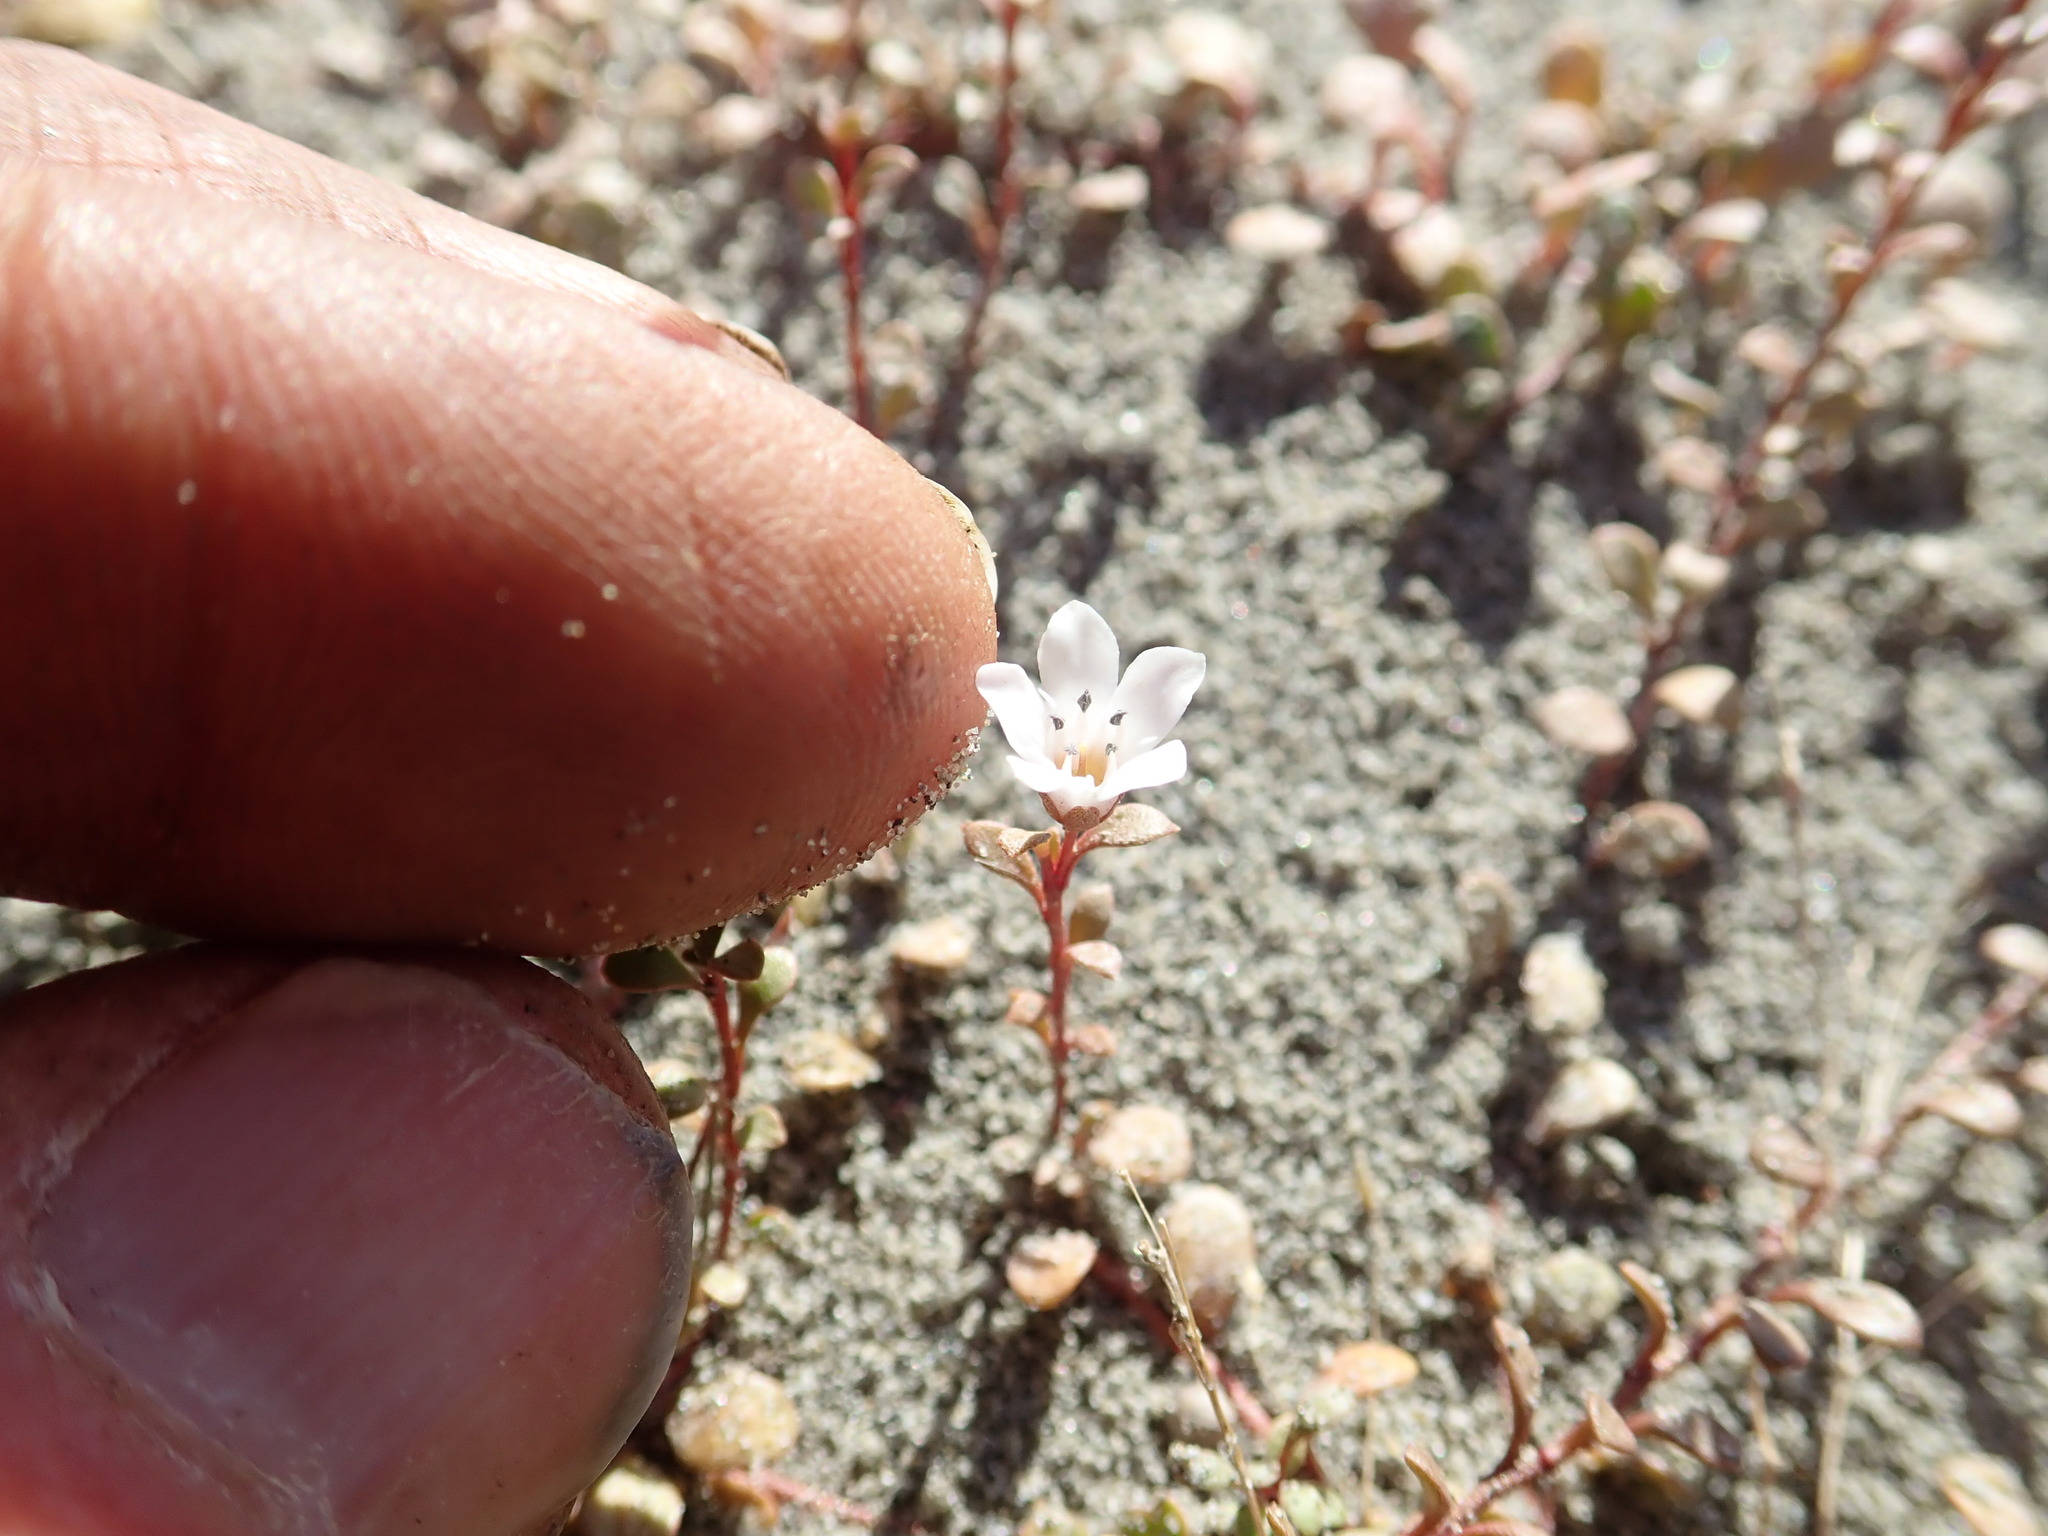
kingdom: Plantae
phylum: Tracheophyta
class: Magnoliopsida
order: Ericales
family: Primulaceae
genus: Samolus
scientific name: Samolus repens
